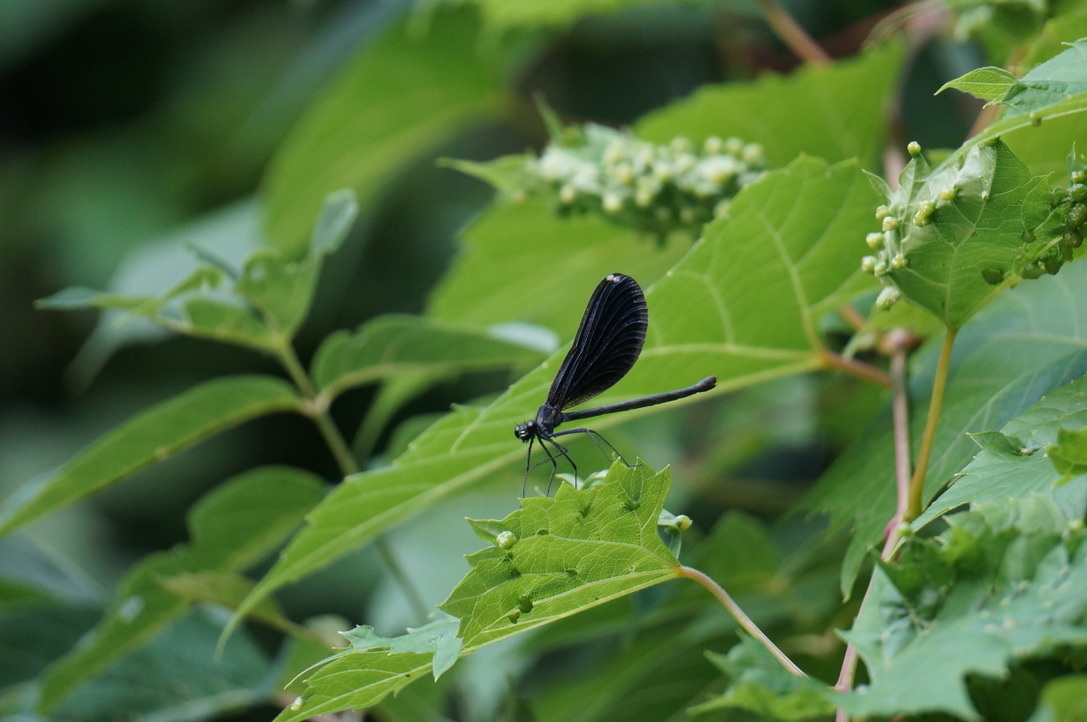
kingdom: Animalia
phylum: Arthropoda
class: Insecta
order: Odonata
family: Calopterygidae
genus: Calopteryx
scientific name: Calopteryx maculata
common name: Ebony jewelwing
